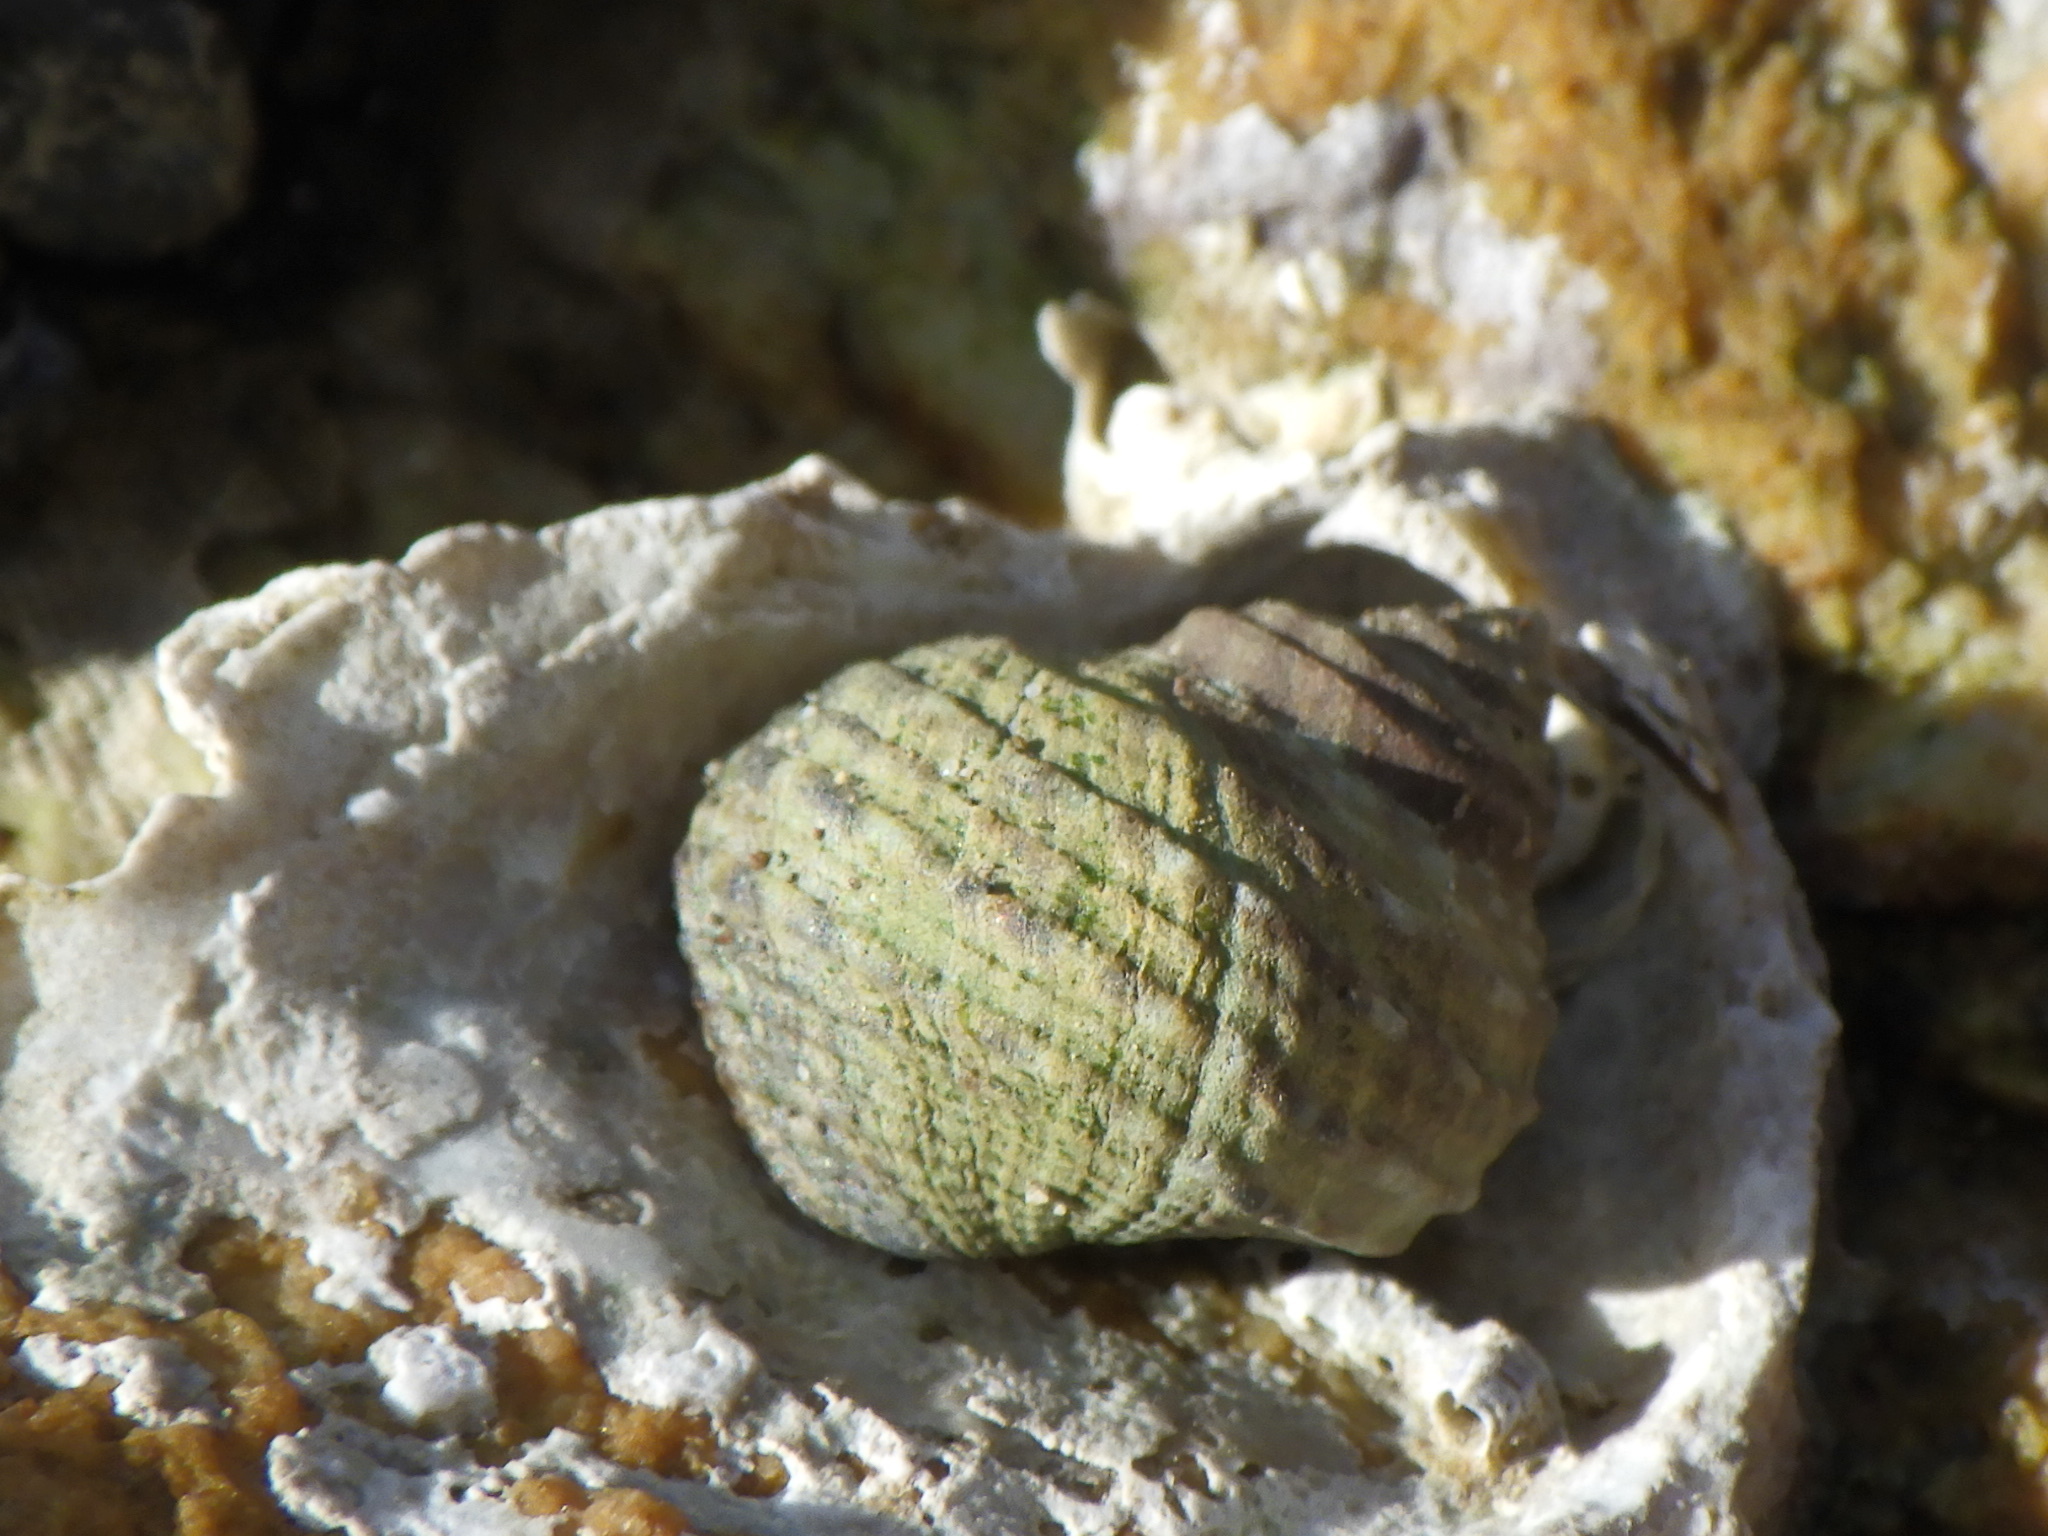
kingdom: Animalia
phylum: Mollusca
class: Gastropoda
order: Littorinimorpha
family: Littorinidae
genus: Littorina
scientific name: Littorina brevicula
